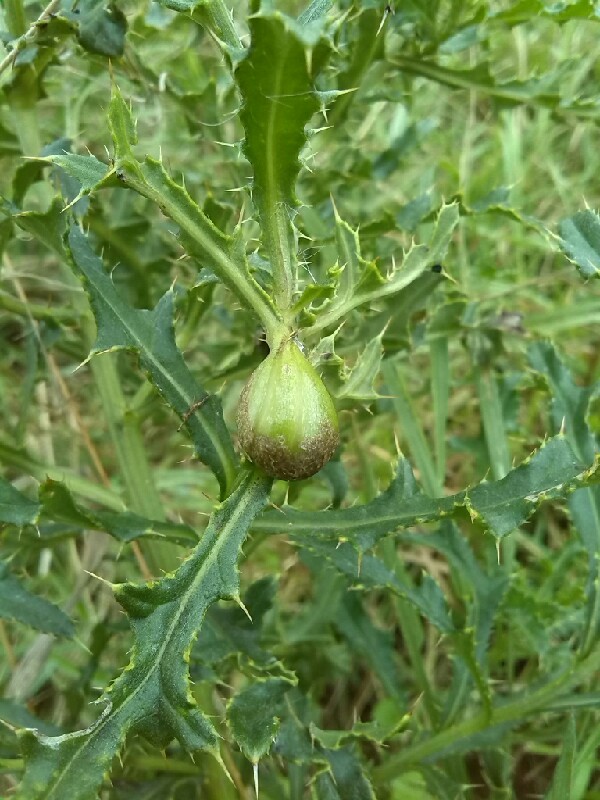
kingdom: Animalia
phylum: Arthropoda
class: Insecta
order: Diptera
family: Tephritidae
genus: Urophora
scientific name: Urophora cardui
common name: Fruit fly
